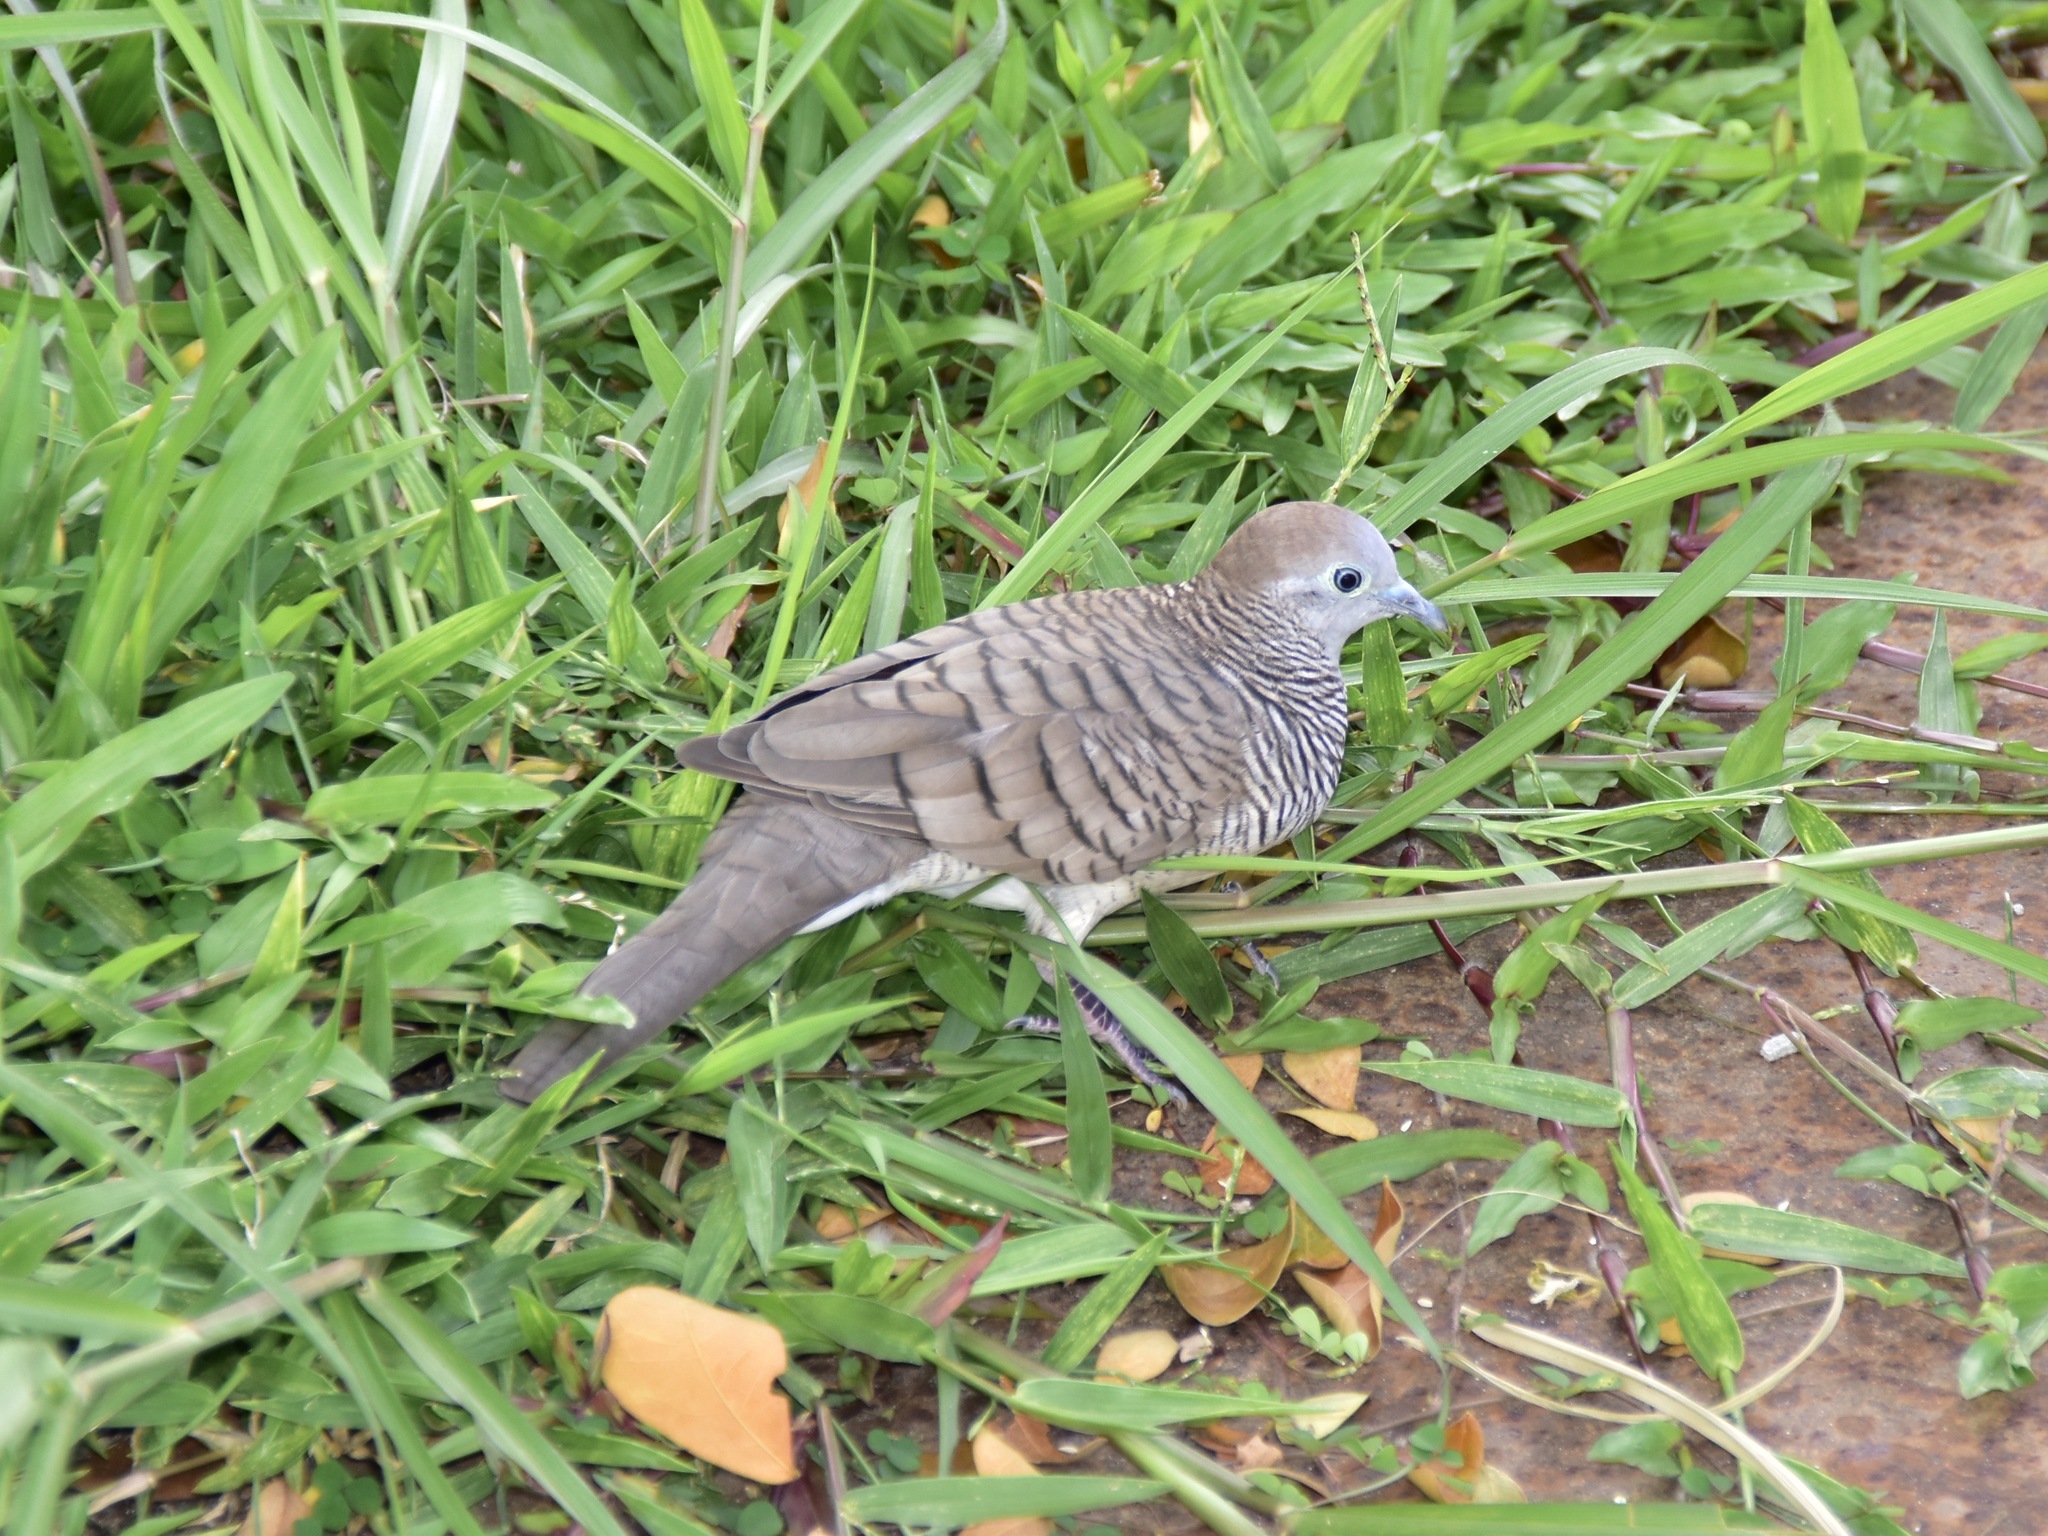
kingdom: Animalia
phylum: Chordata
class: Aves
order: Columbiformes
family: Columbidae
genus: Geopelia
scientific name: Geopelia striata
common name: Zebra dove
